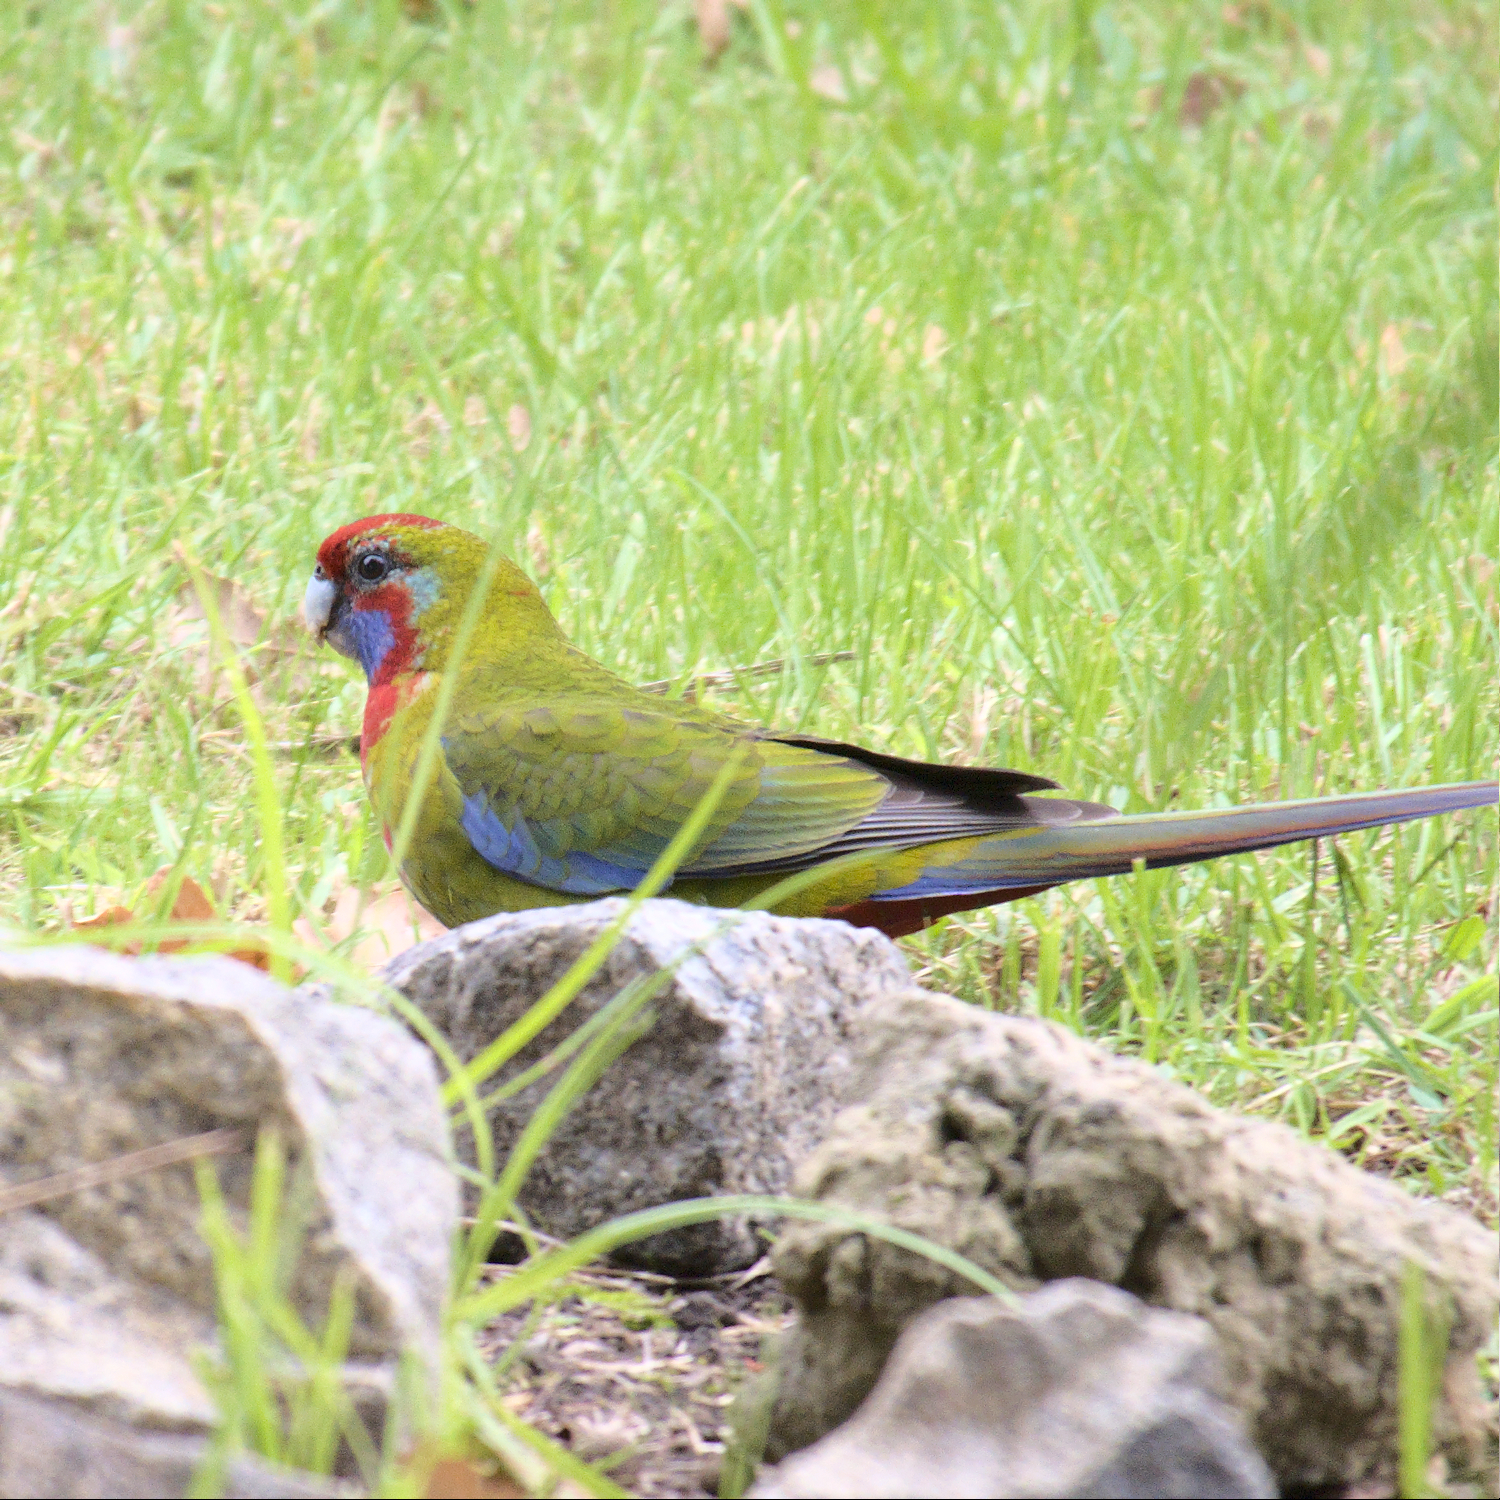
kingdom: Animalia
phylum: Chordata
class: Aves
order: Psittaciformes
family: Psittacidae
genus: Platycercus
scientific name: Platycercus elegans
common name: Crimson rosella
